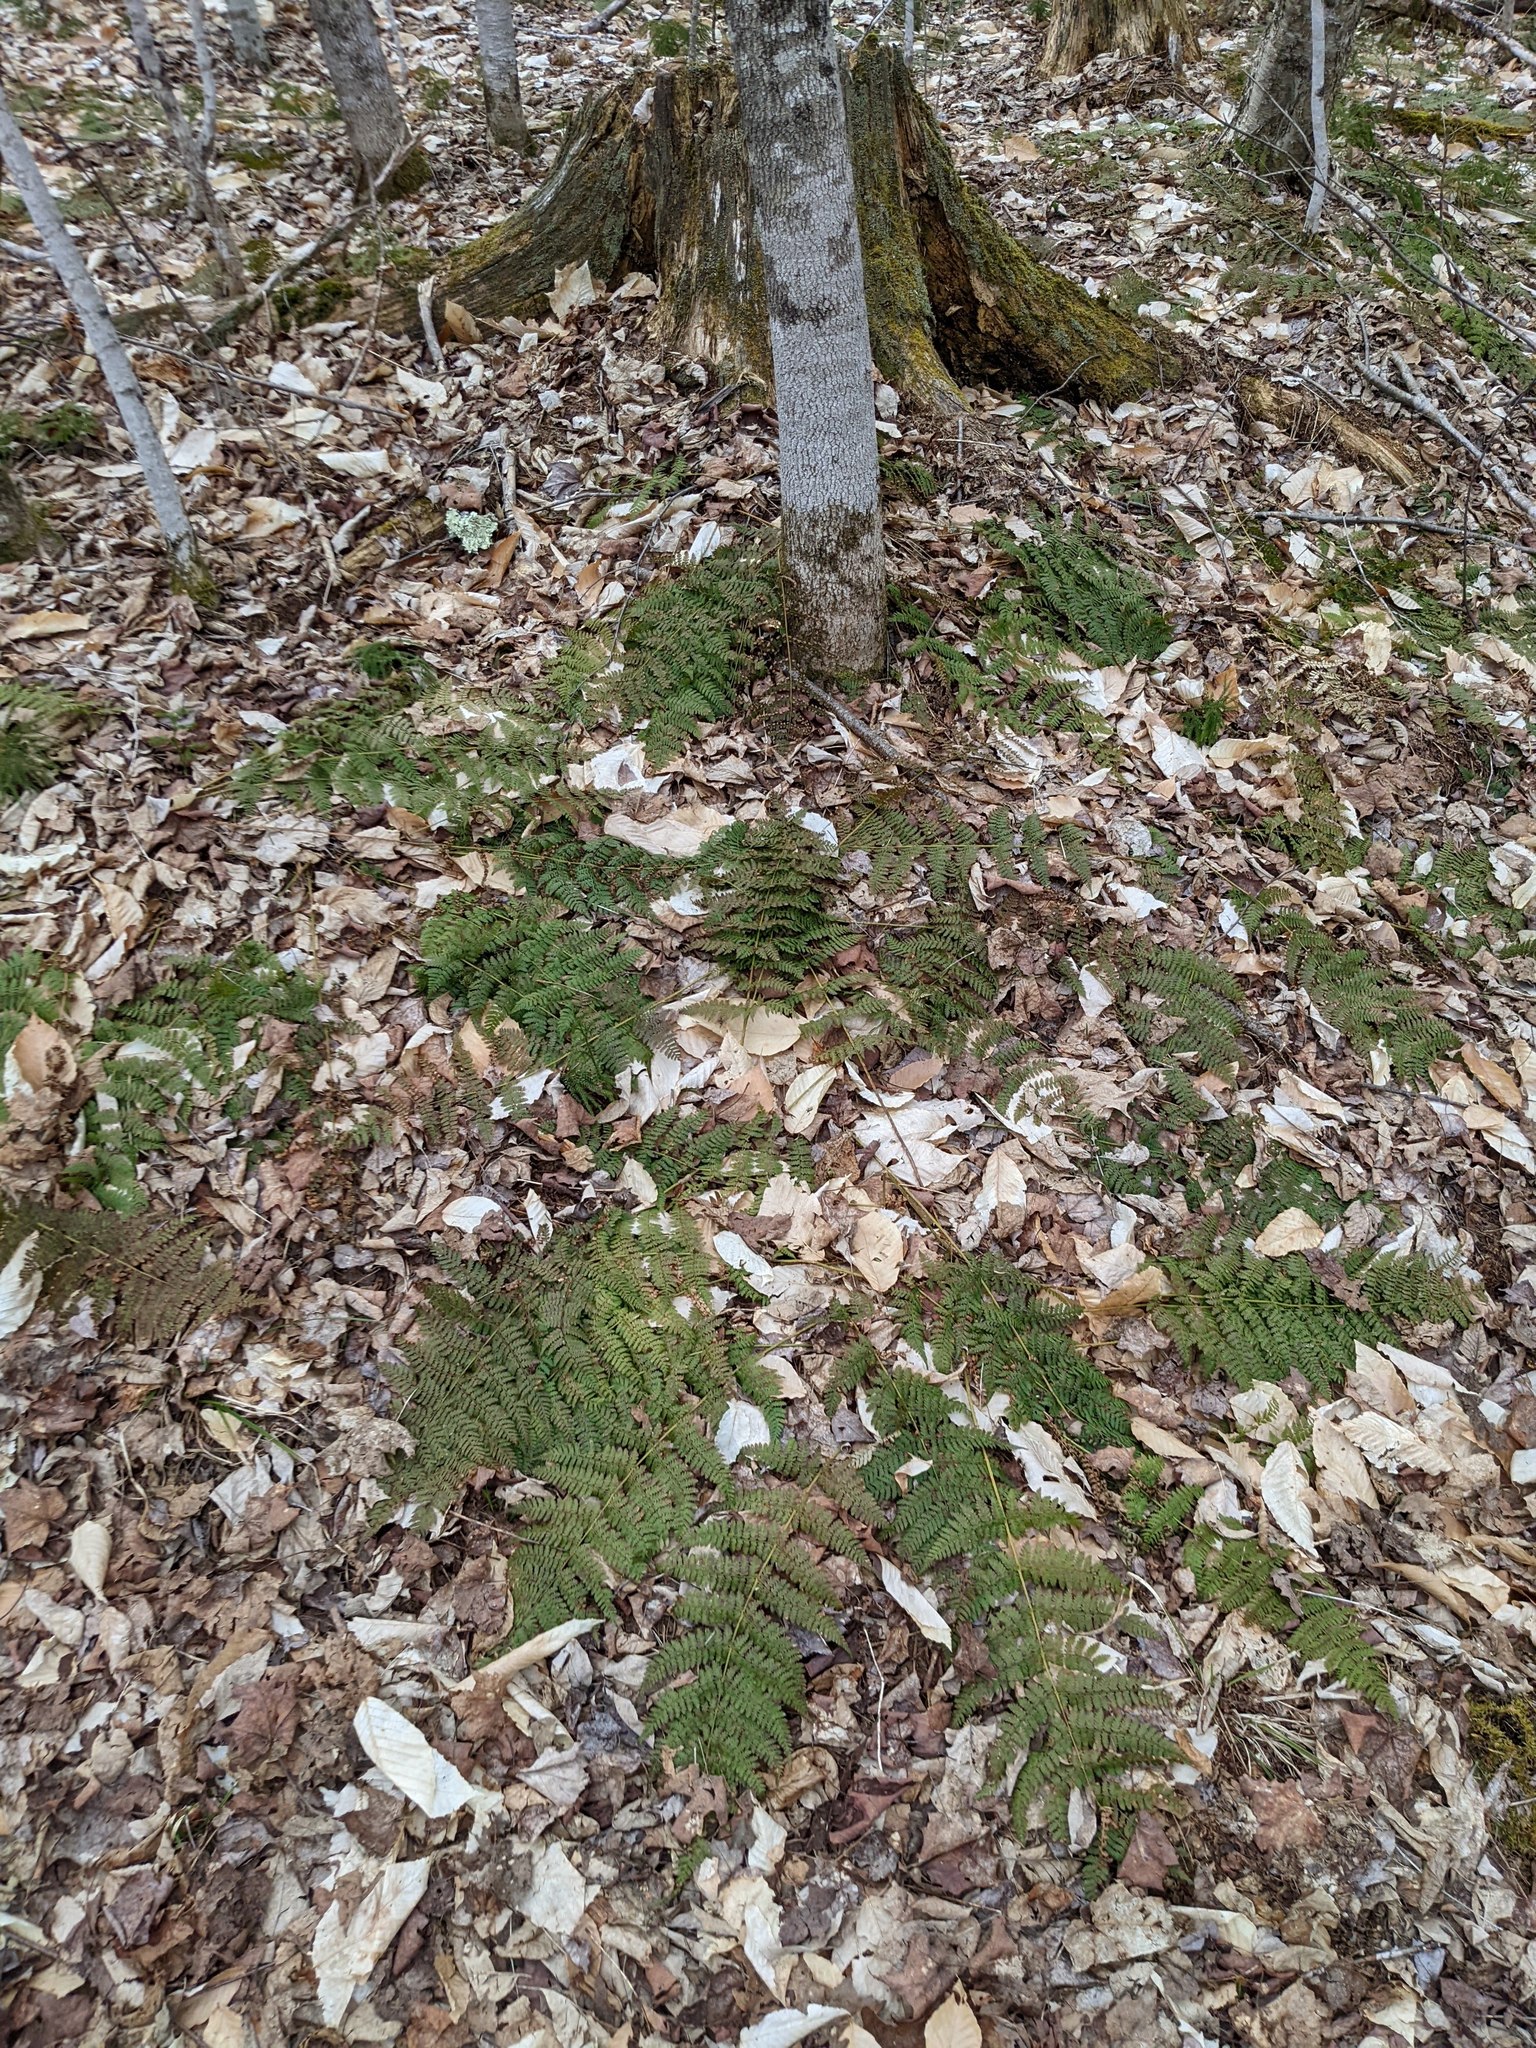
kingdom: Plantae
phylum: Tracheophyta
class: Polypodiopsida
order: Polypodiales
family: Dryopteridaceae
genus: Dryopteris
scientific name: Dryopteris intermedia
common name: Evergreen wood fern
